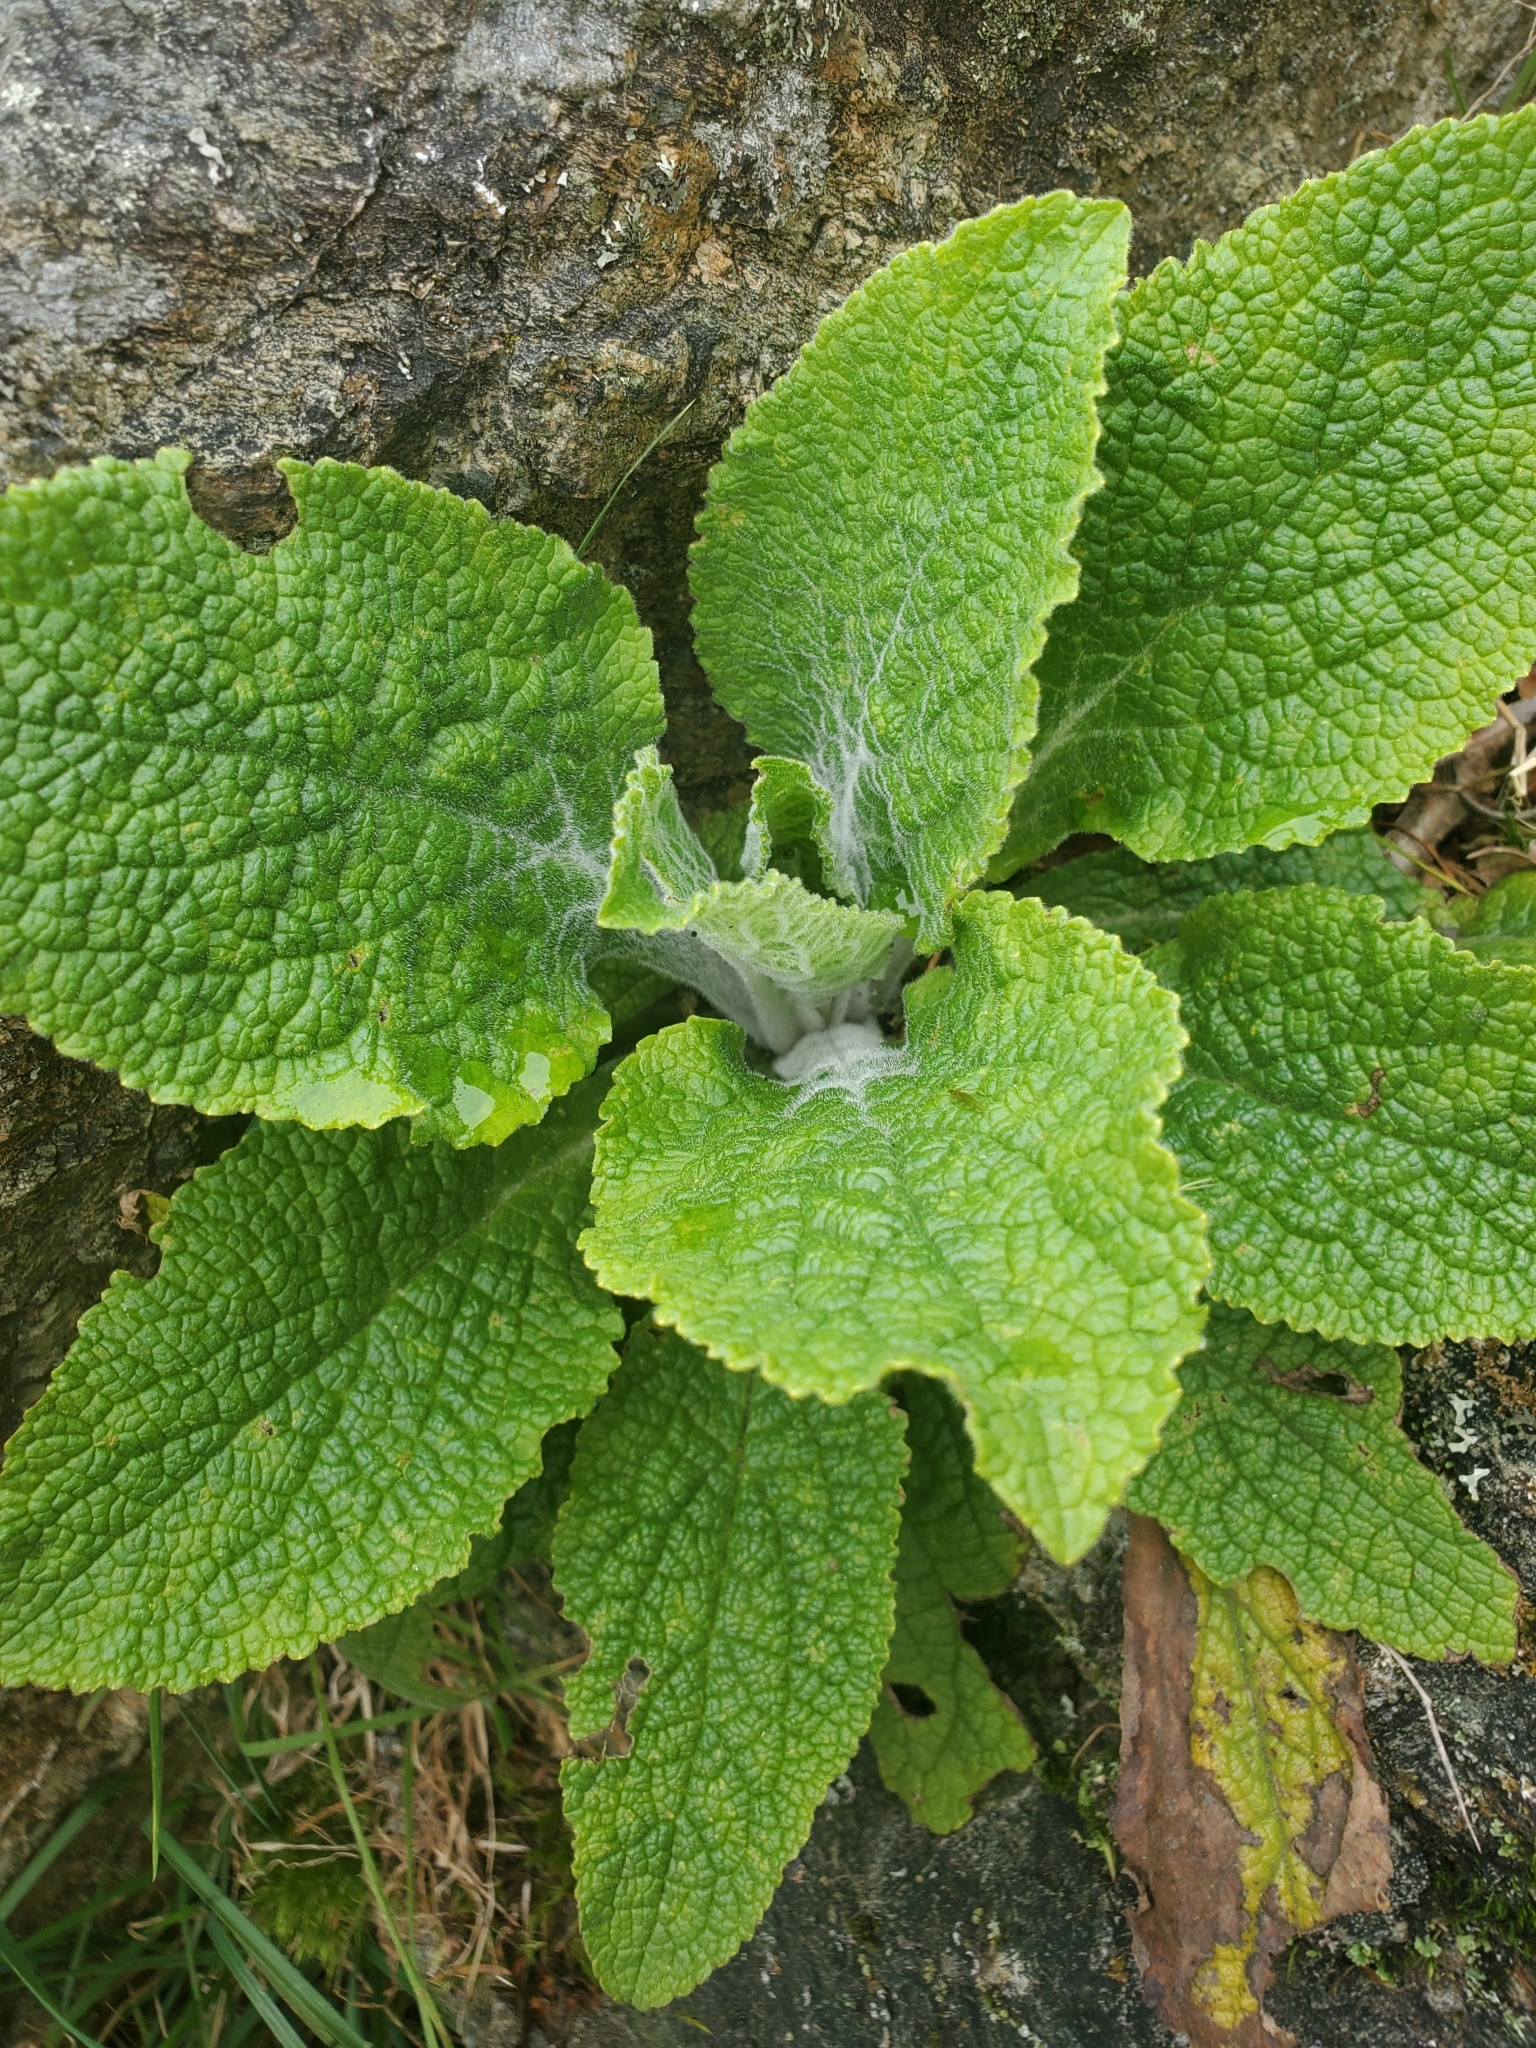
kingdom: Plantae
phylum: Tracheophyta
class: Magnoliopsida
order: Lamiales
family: Plantaginaceae
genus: Digitalis
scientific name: Digitalis purpurea
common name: Foxglove
